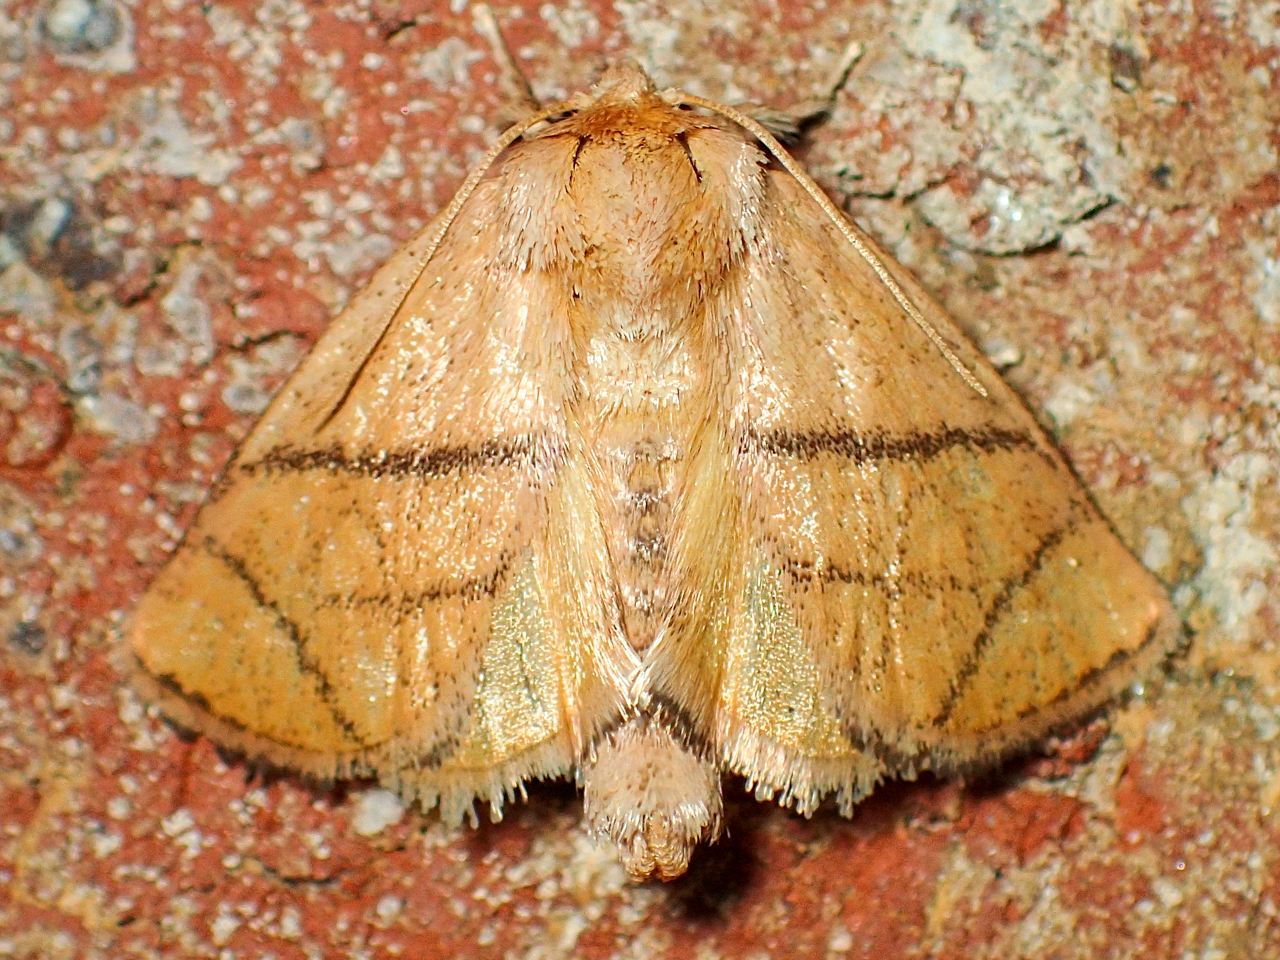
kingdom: Animalia
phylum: Arthropoda
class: Insecta
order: Lepidoptera
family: Limacodidae
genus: Apoda
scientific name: Apoda y-inversa
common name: Yellow-collared slug moth
